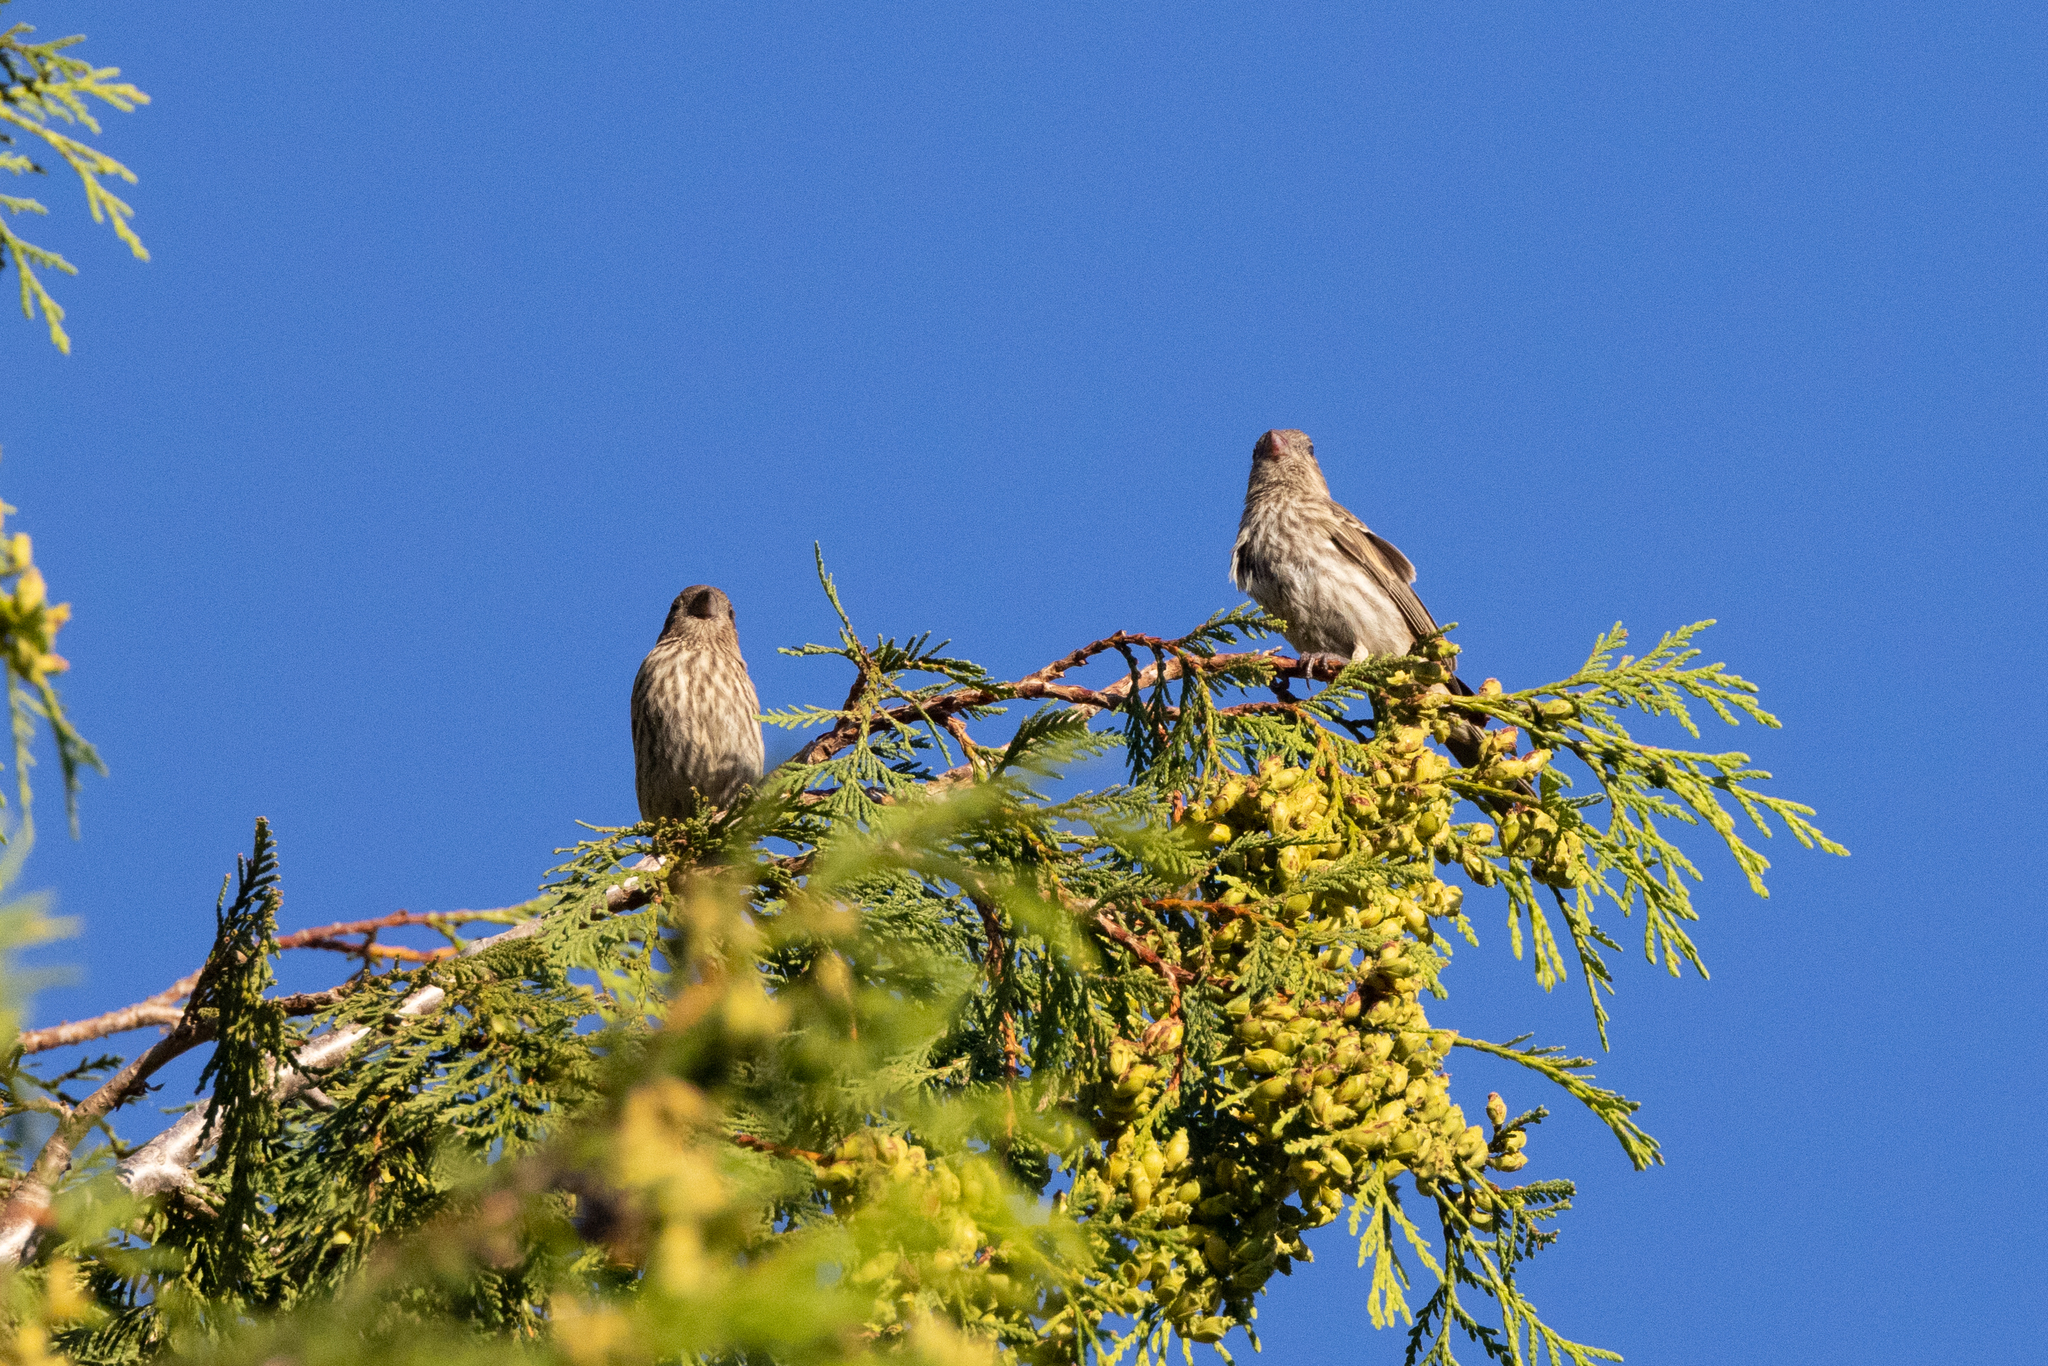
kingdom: Animalia
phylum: Chordata
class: Aves
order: Passeriformes
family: Fringillidae
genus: Haemorhous
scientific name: Haemorhous mexicanus
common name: House finch
